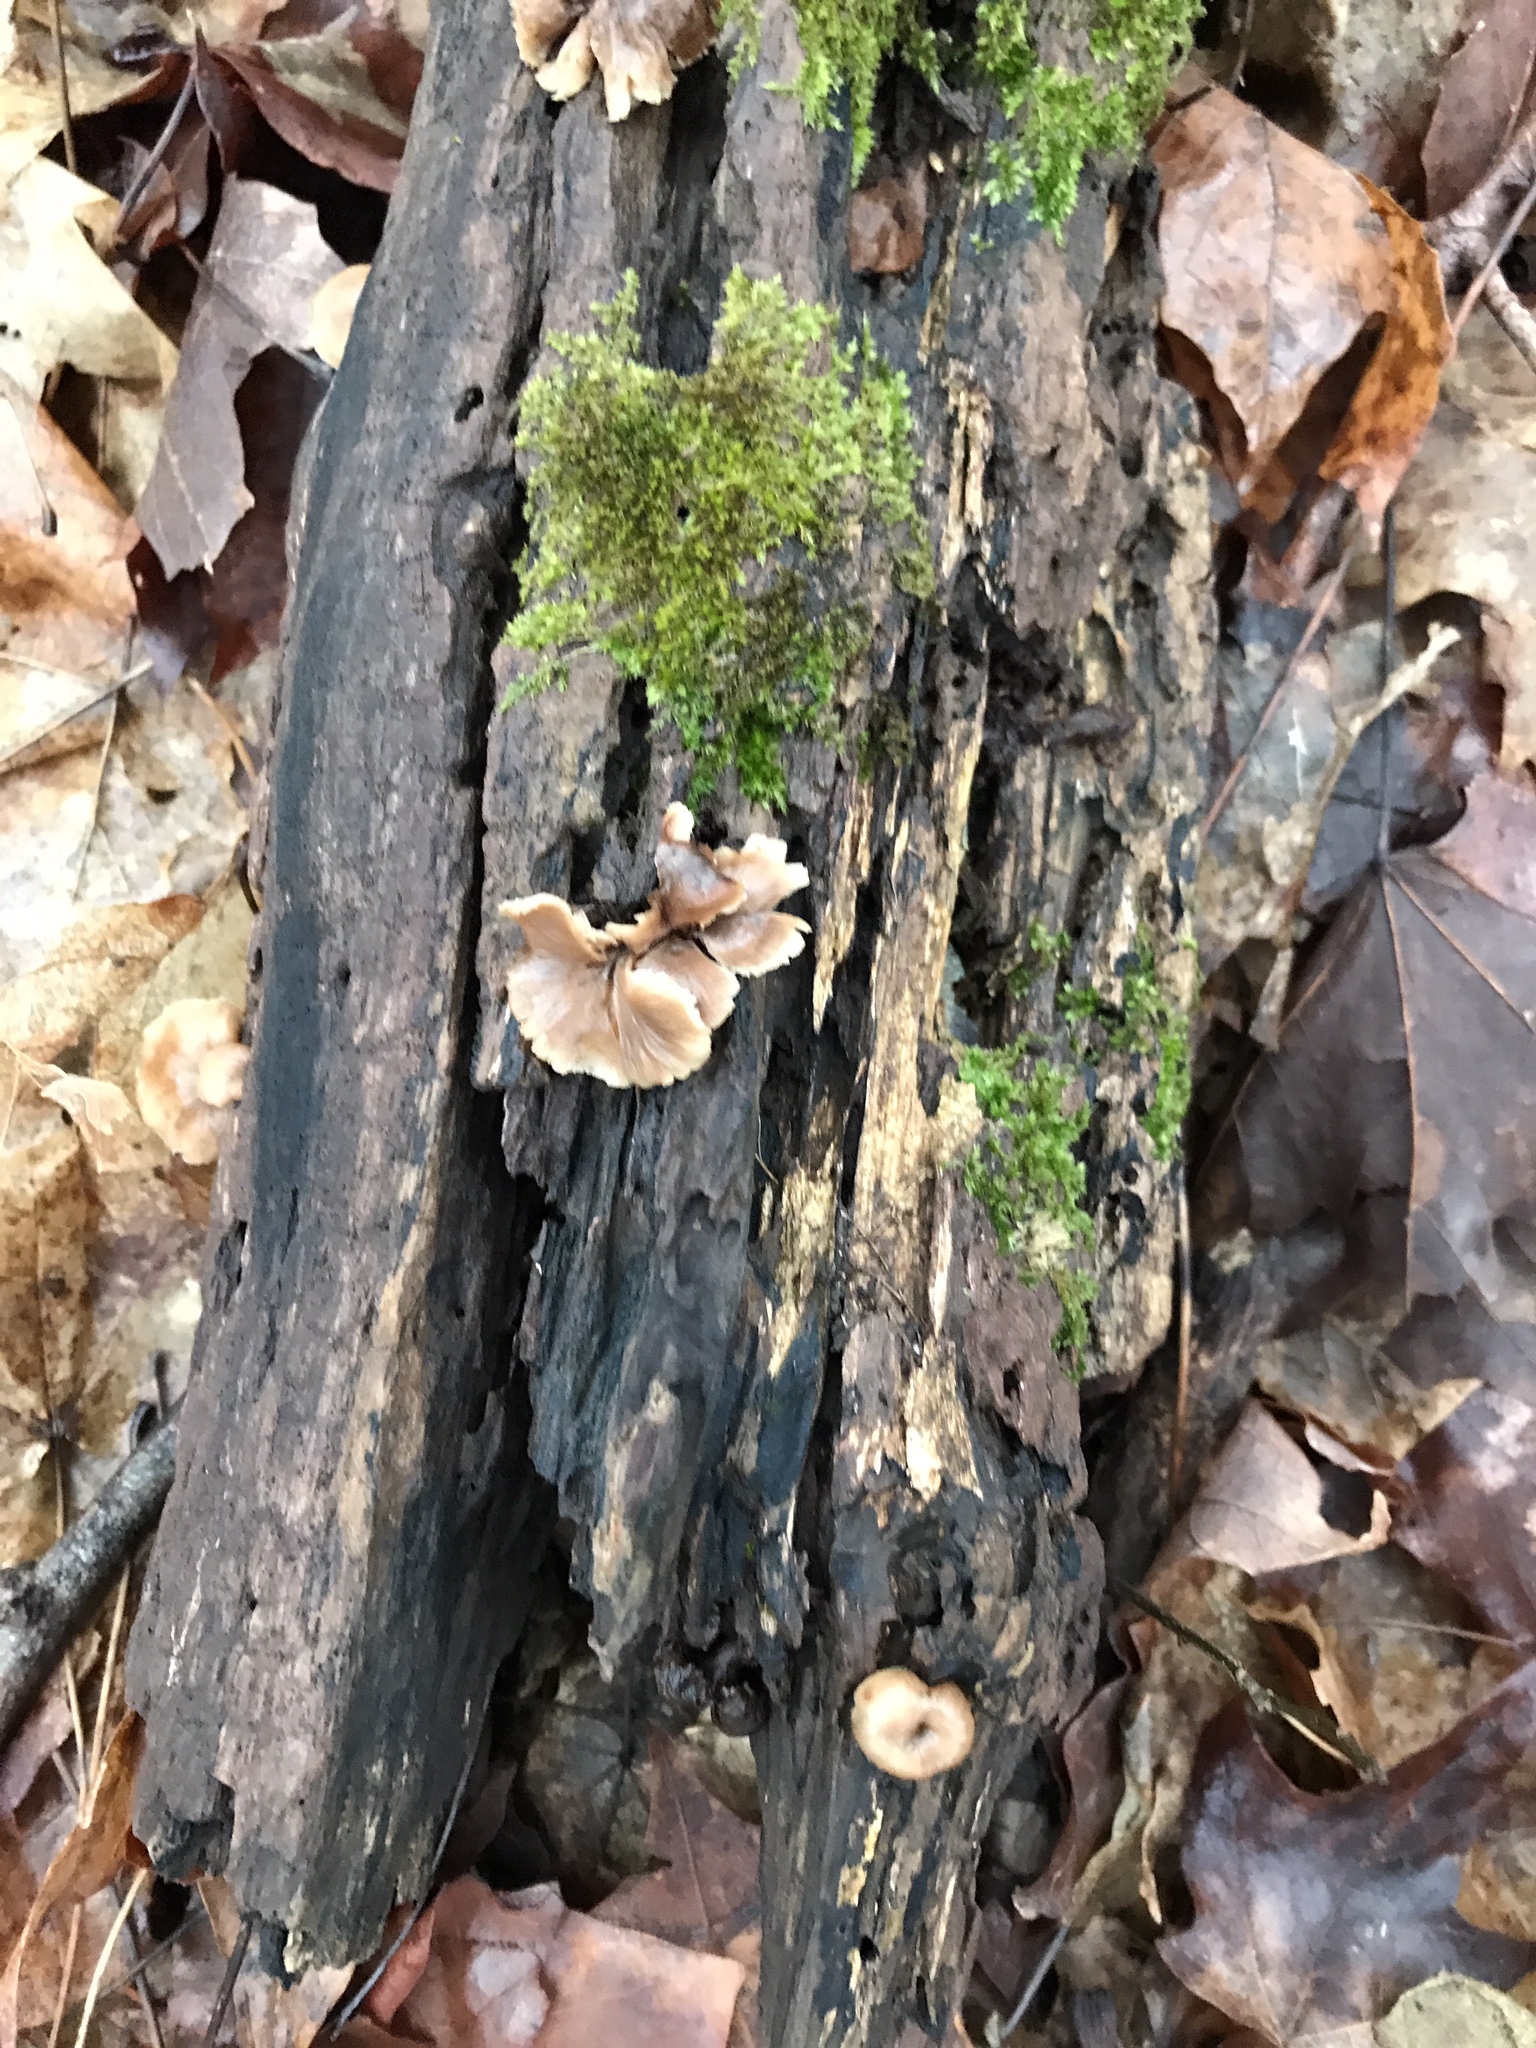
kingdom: Fungi
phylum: Basidiomycota
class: Agaricomycetes
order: Russulales
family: Auriscalpiaceae
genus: Lentinellus
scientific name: Lentinellus subaustralis
